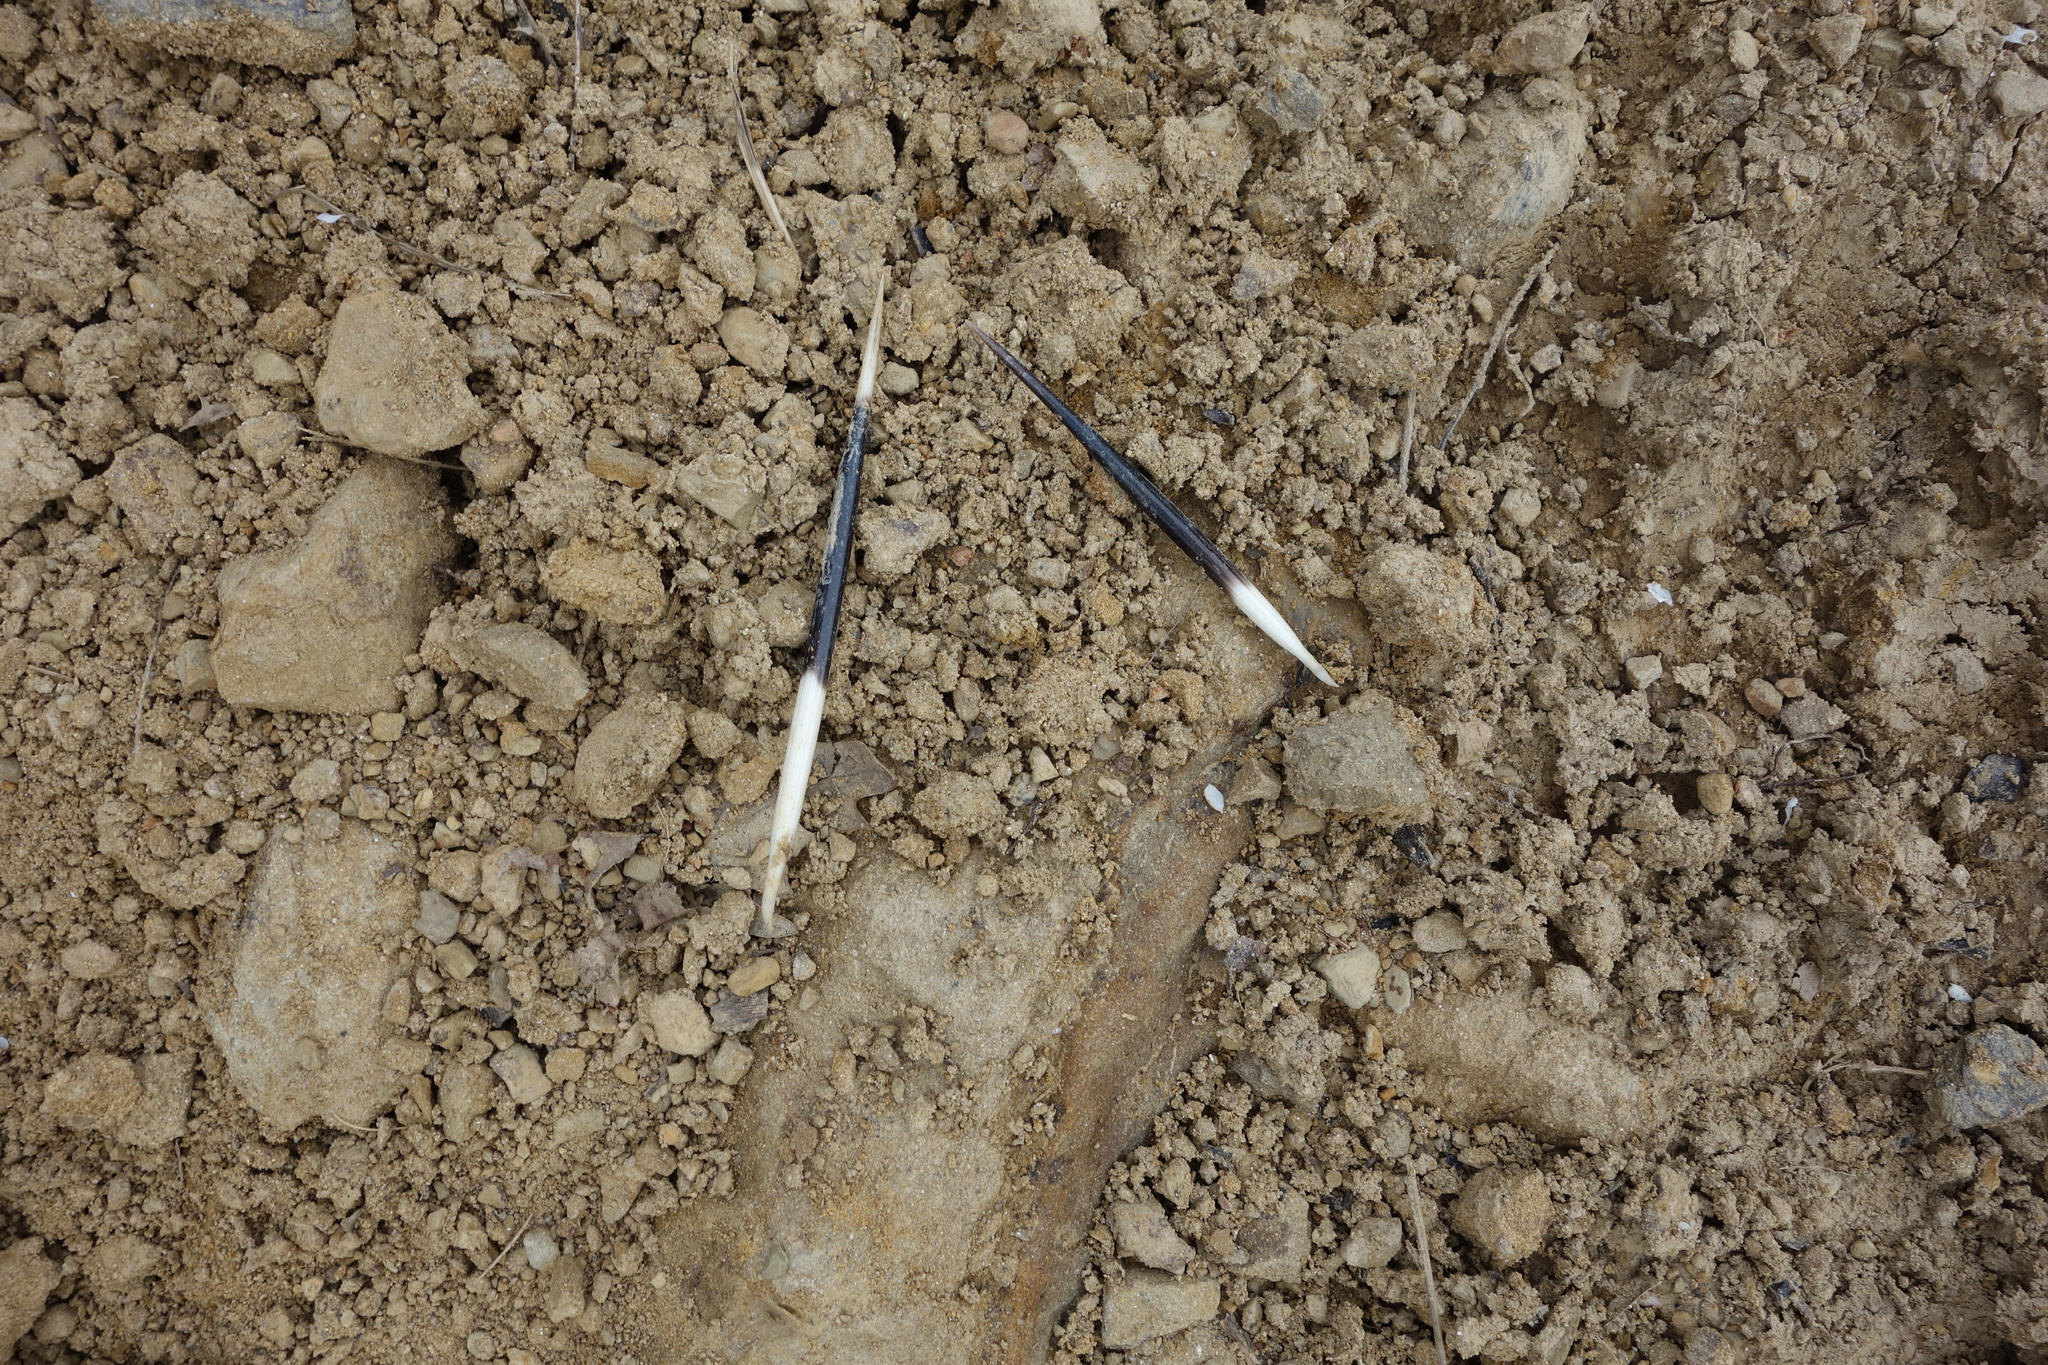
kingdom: Animalia
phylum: Chordata
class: Mammalia
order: Rodentia
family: Hystricidae
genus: Hystrix
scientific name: Hystrix cristata
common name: Crested porcupine
